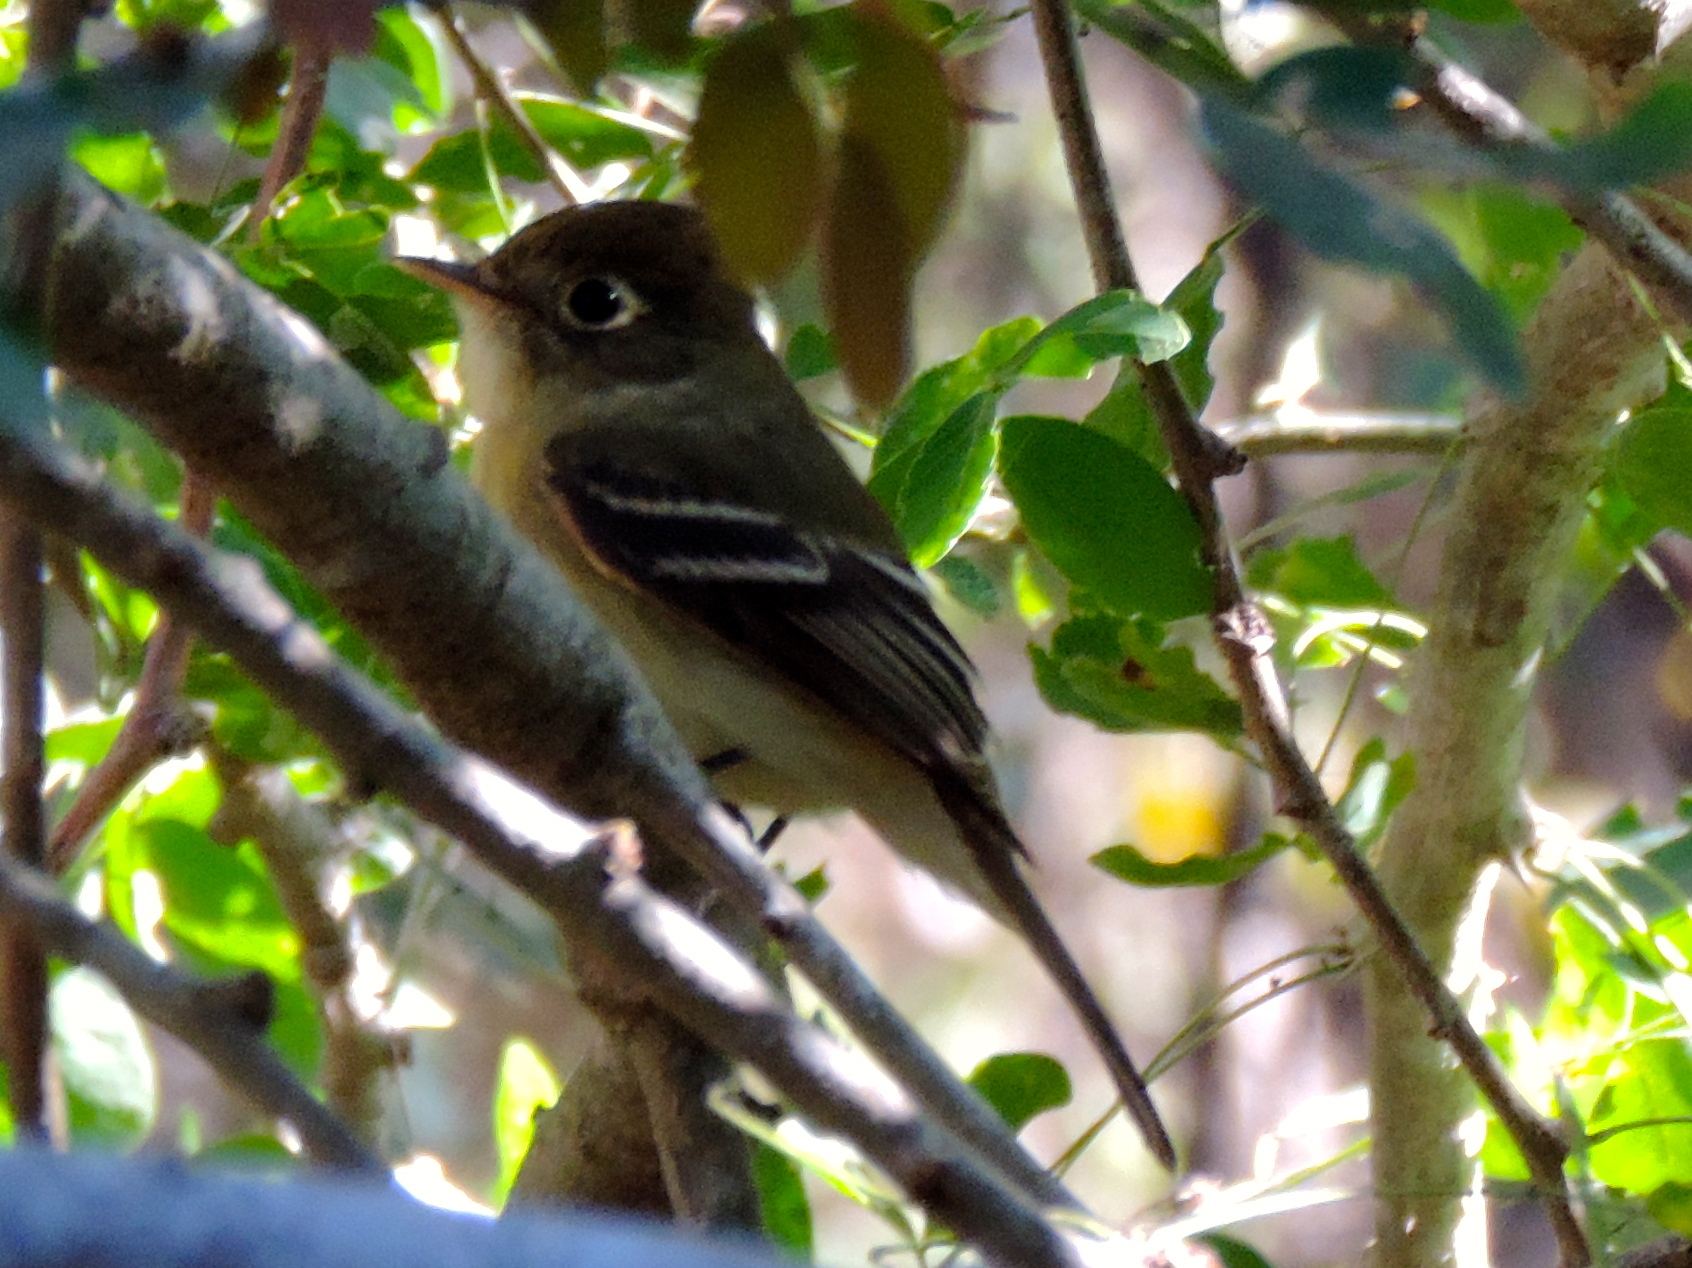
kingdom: Animalia
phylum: Chordata
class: Aves
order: Passeriformes
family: Tyrannidae
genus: Empidonax
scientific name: Empidonax difficilis
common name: Pacific-slope flycatcher
